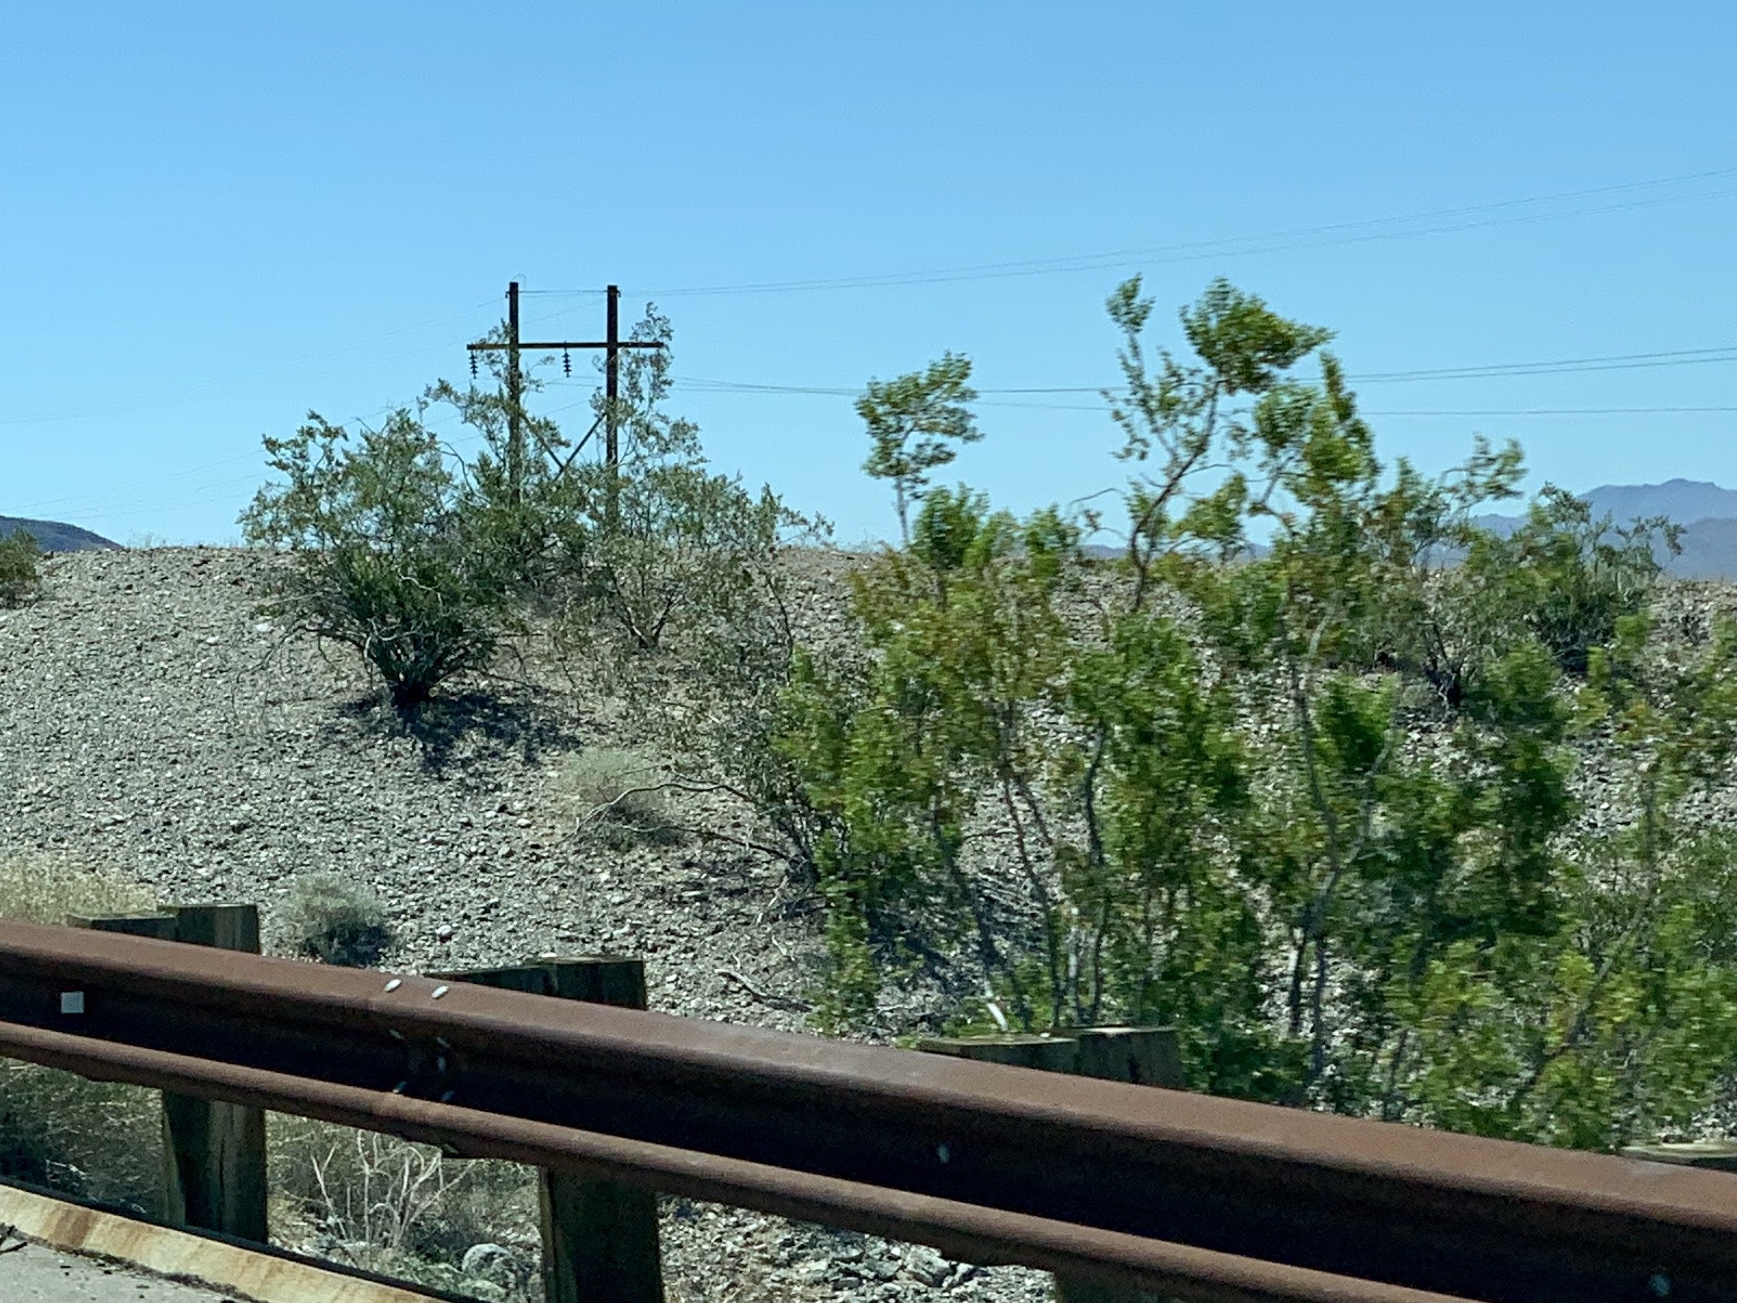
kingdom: Plantae
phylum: Tracheophyta
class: Magnoliopsida
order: Zygophyllales
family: Zygophyllaceae
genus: Larrea
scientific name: Larrea tridentata
